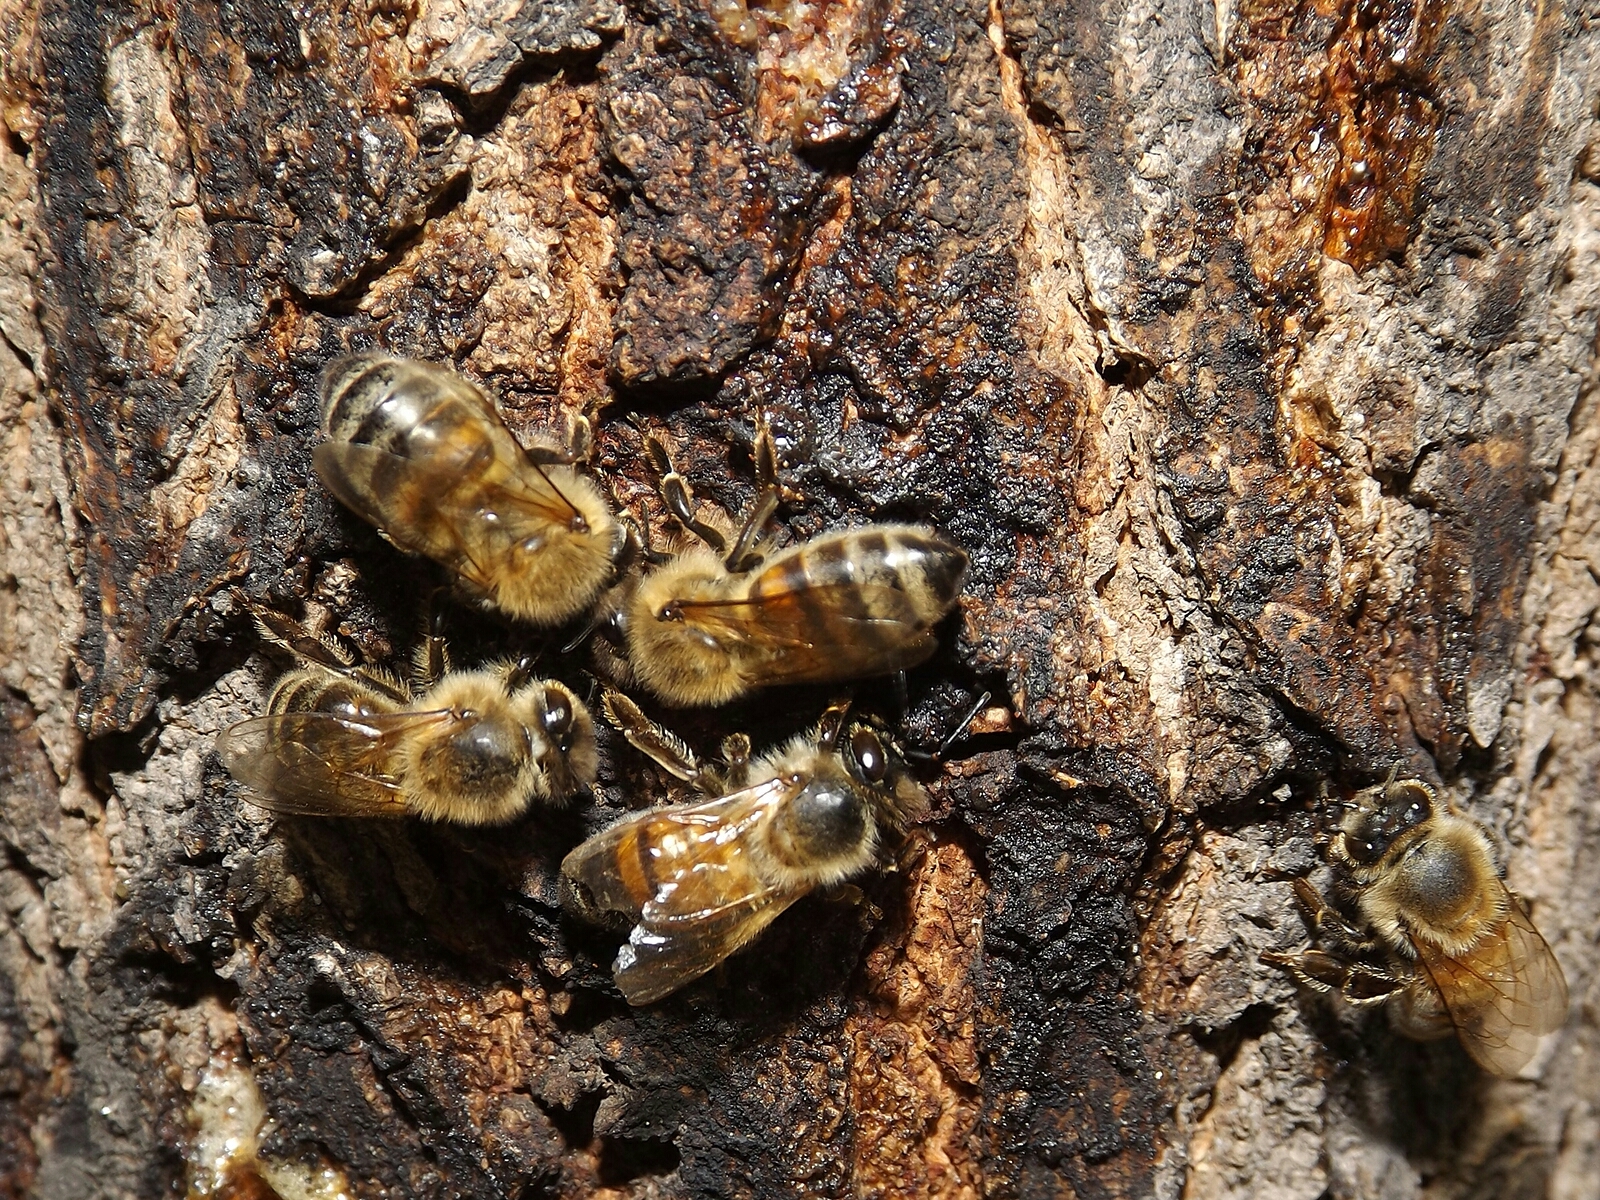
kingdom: Animalia
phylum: Arthropoda
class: Insecta
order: Hymenoptera
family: Apidae
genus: Apis
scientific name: Apis mellifera
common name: Honey bee
